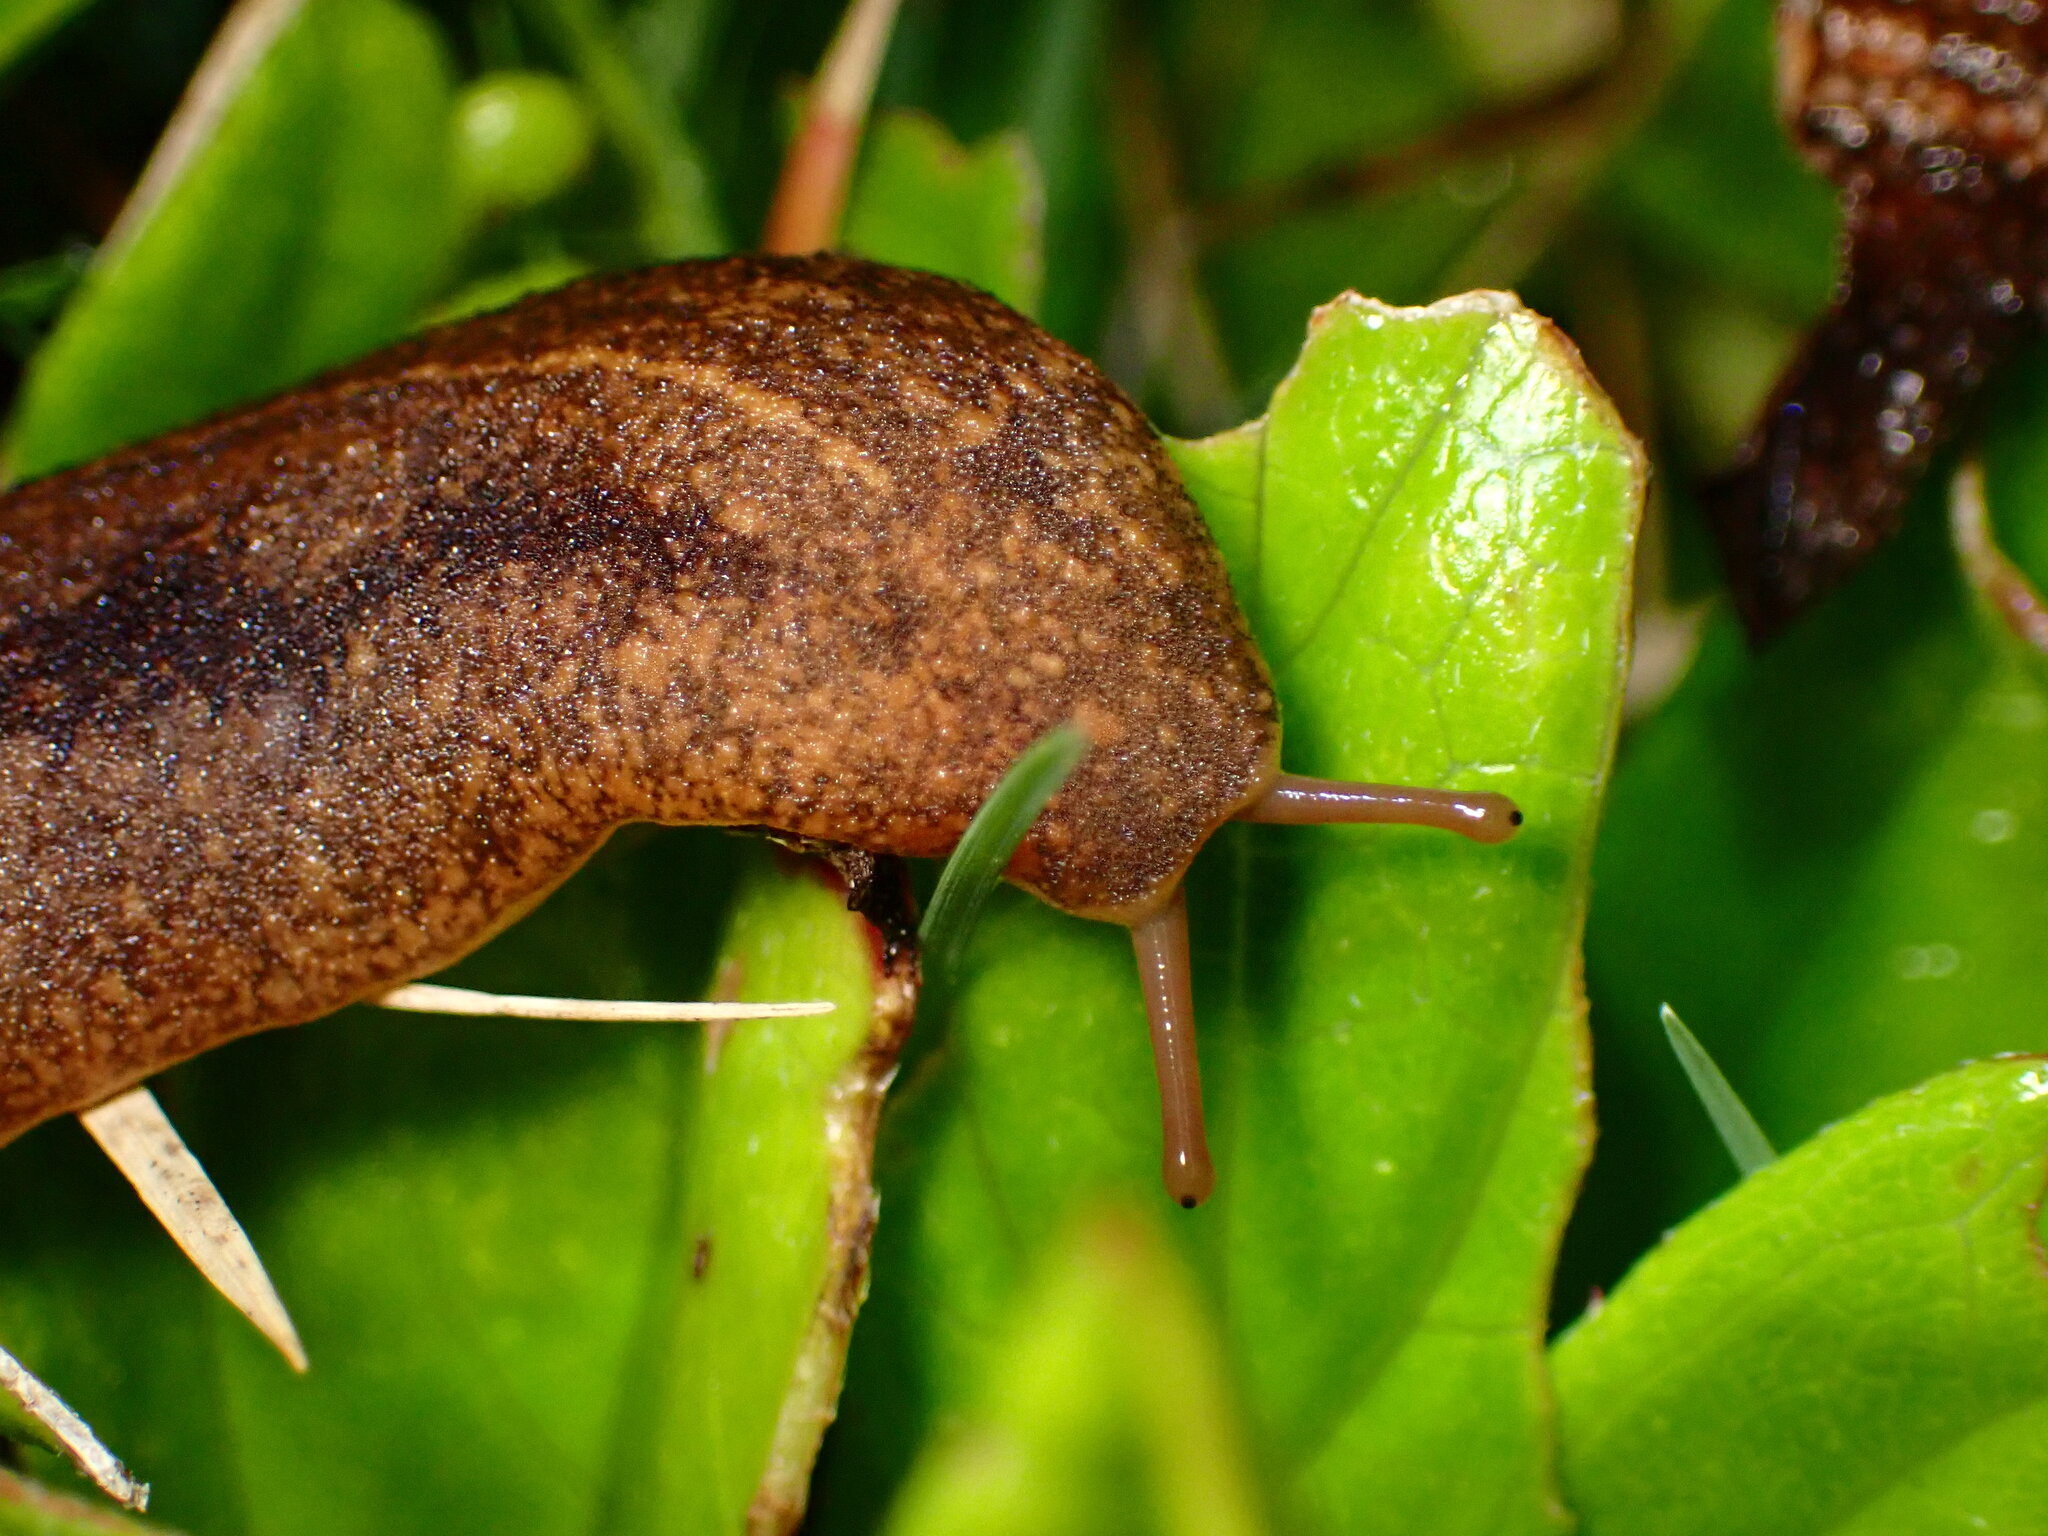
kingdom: Animalia
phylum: Mollusca
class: Gastropoda
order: Systellommatophora
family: Veronicellidae
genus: Veronicella
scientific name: Veronicella cubensis
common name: Two striped slug
